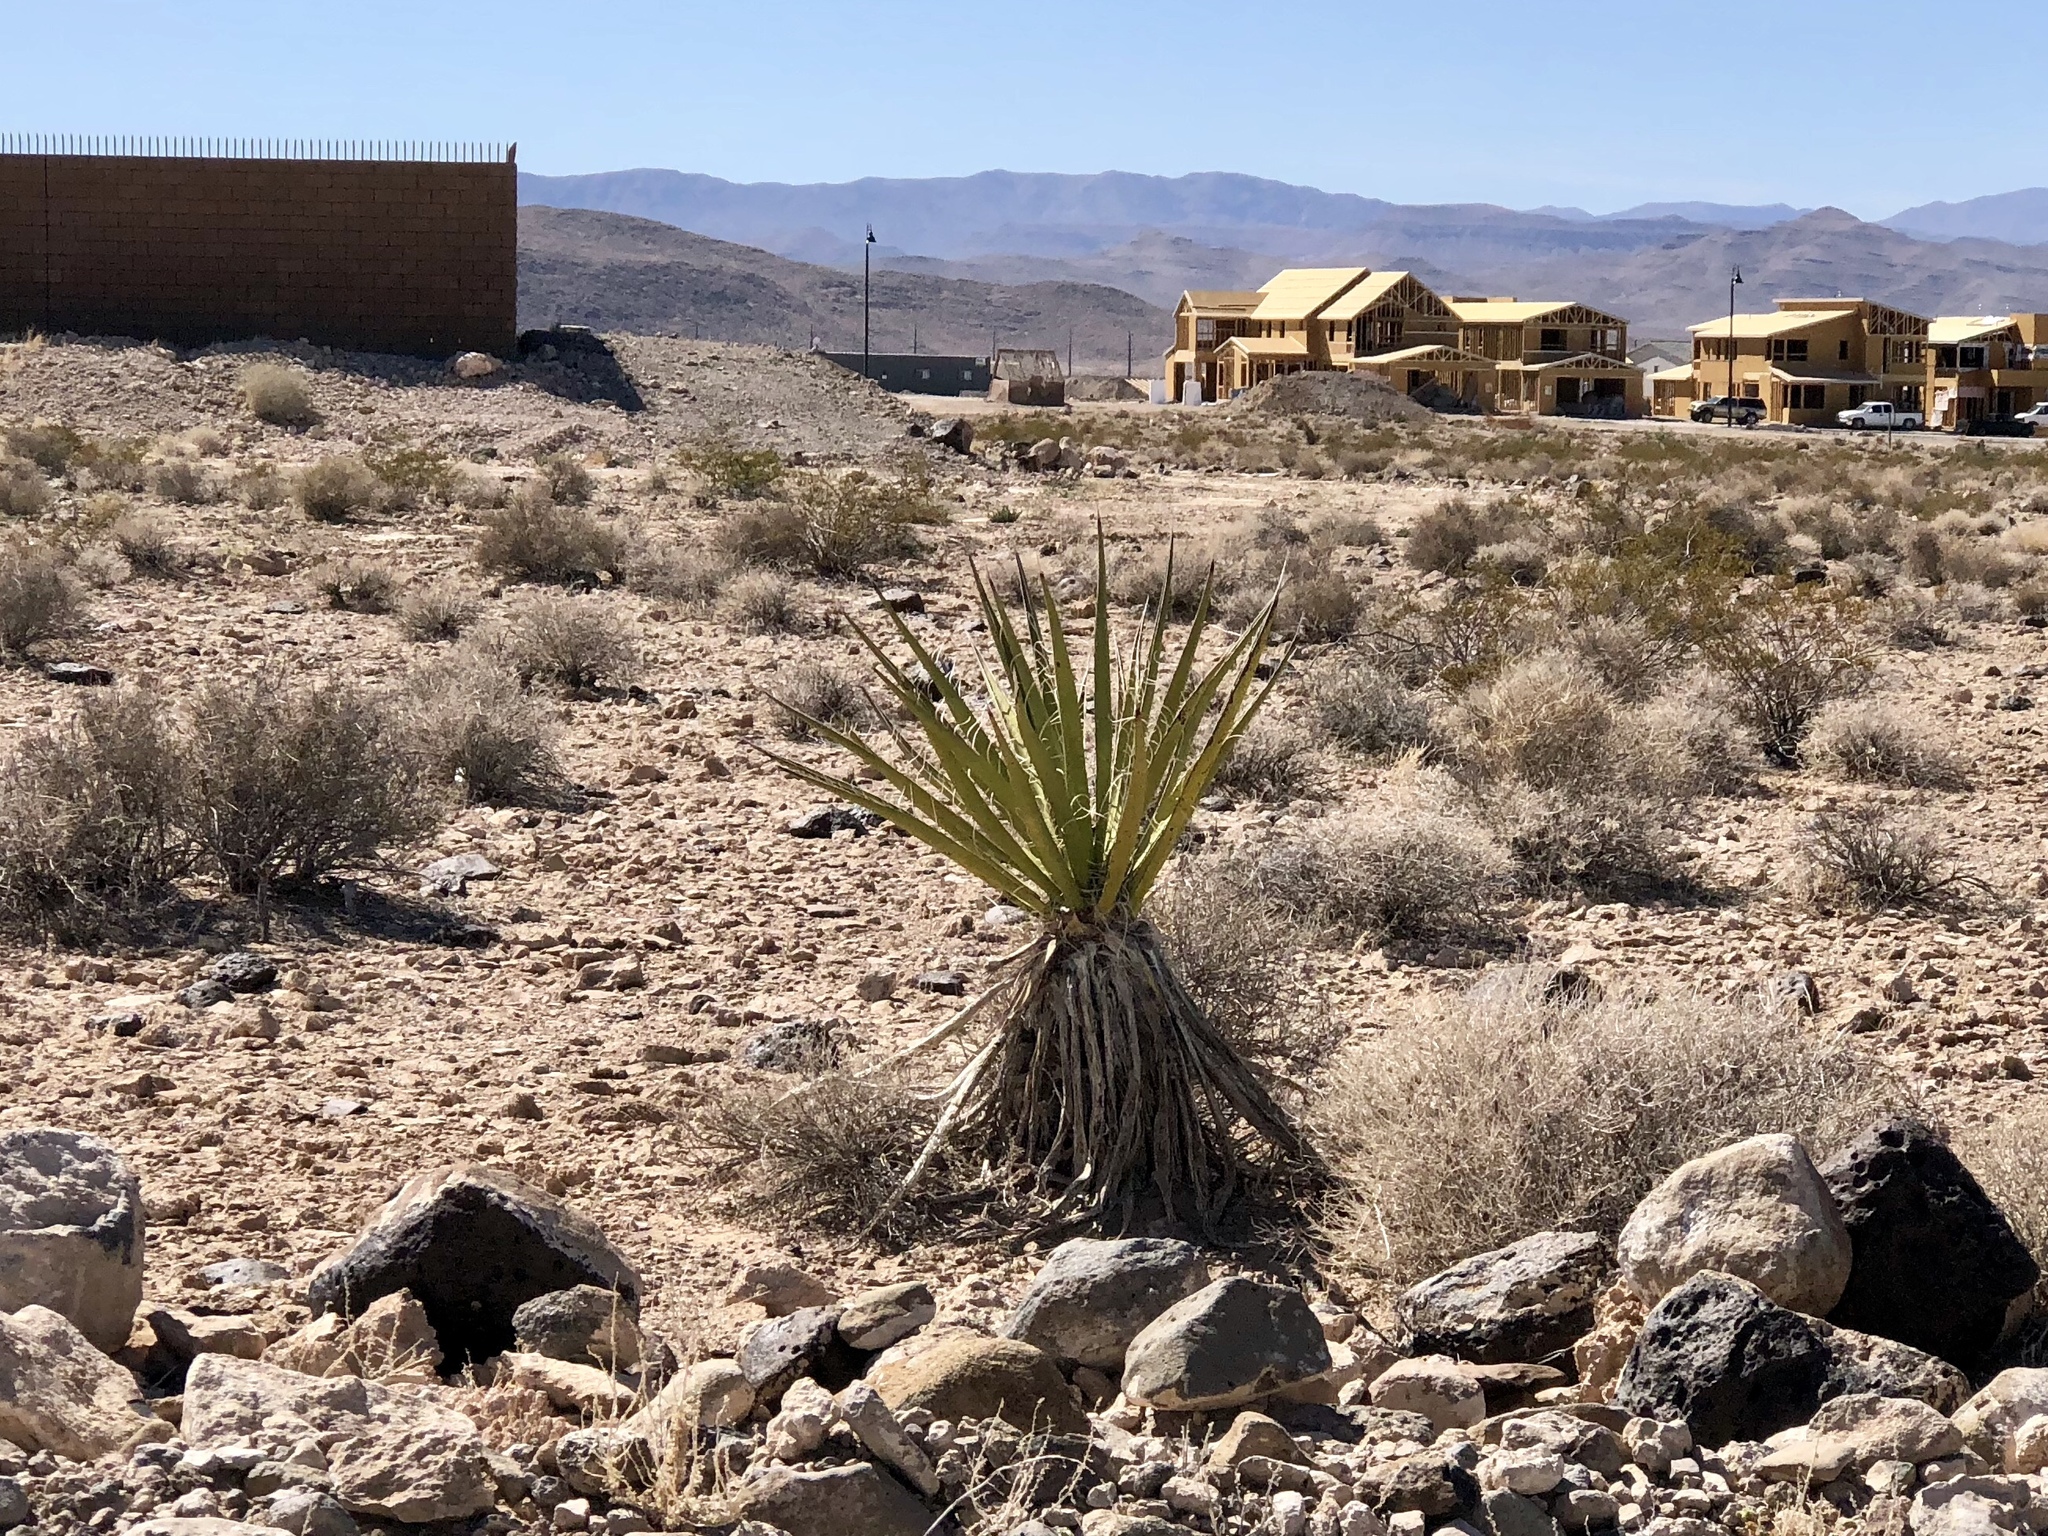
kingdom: Plantae
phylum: Tracheophyta
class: Liliopsida
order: Asparagales
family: Asparagaceae
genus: Yucca
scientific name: Yucca schidigera
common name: Mojave yucca
